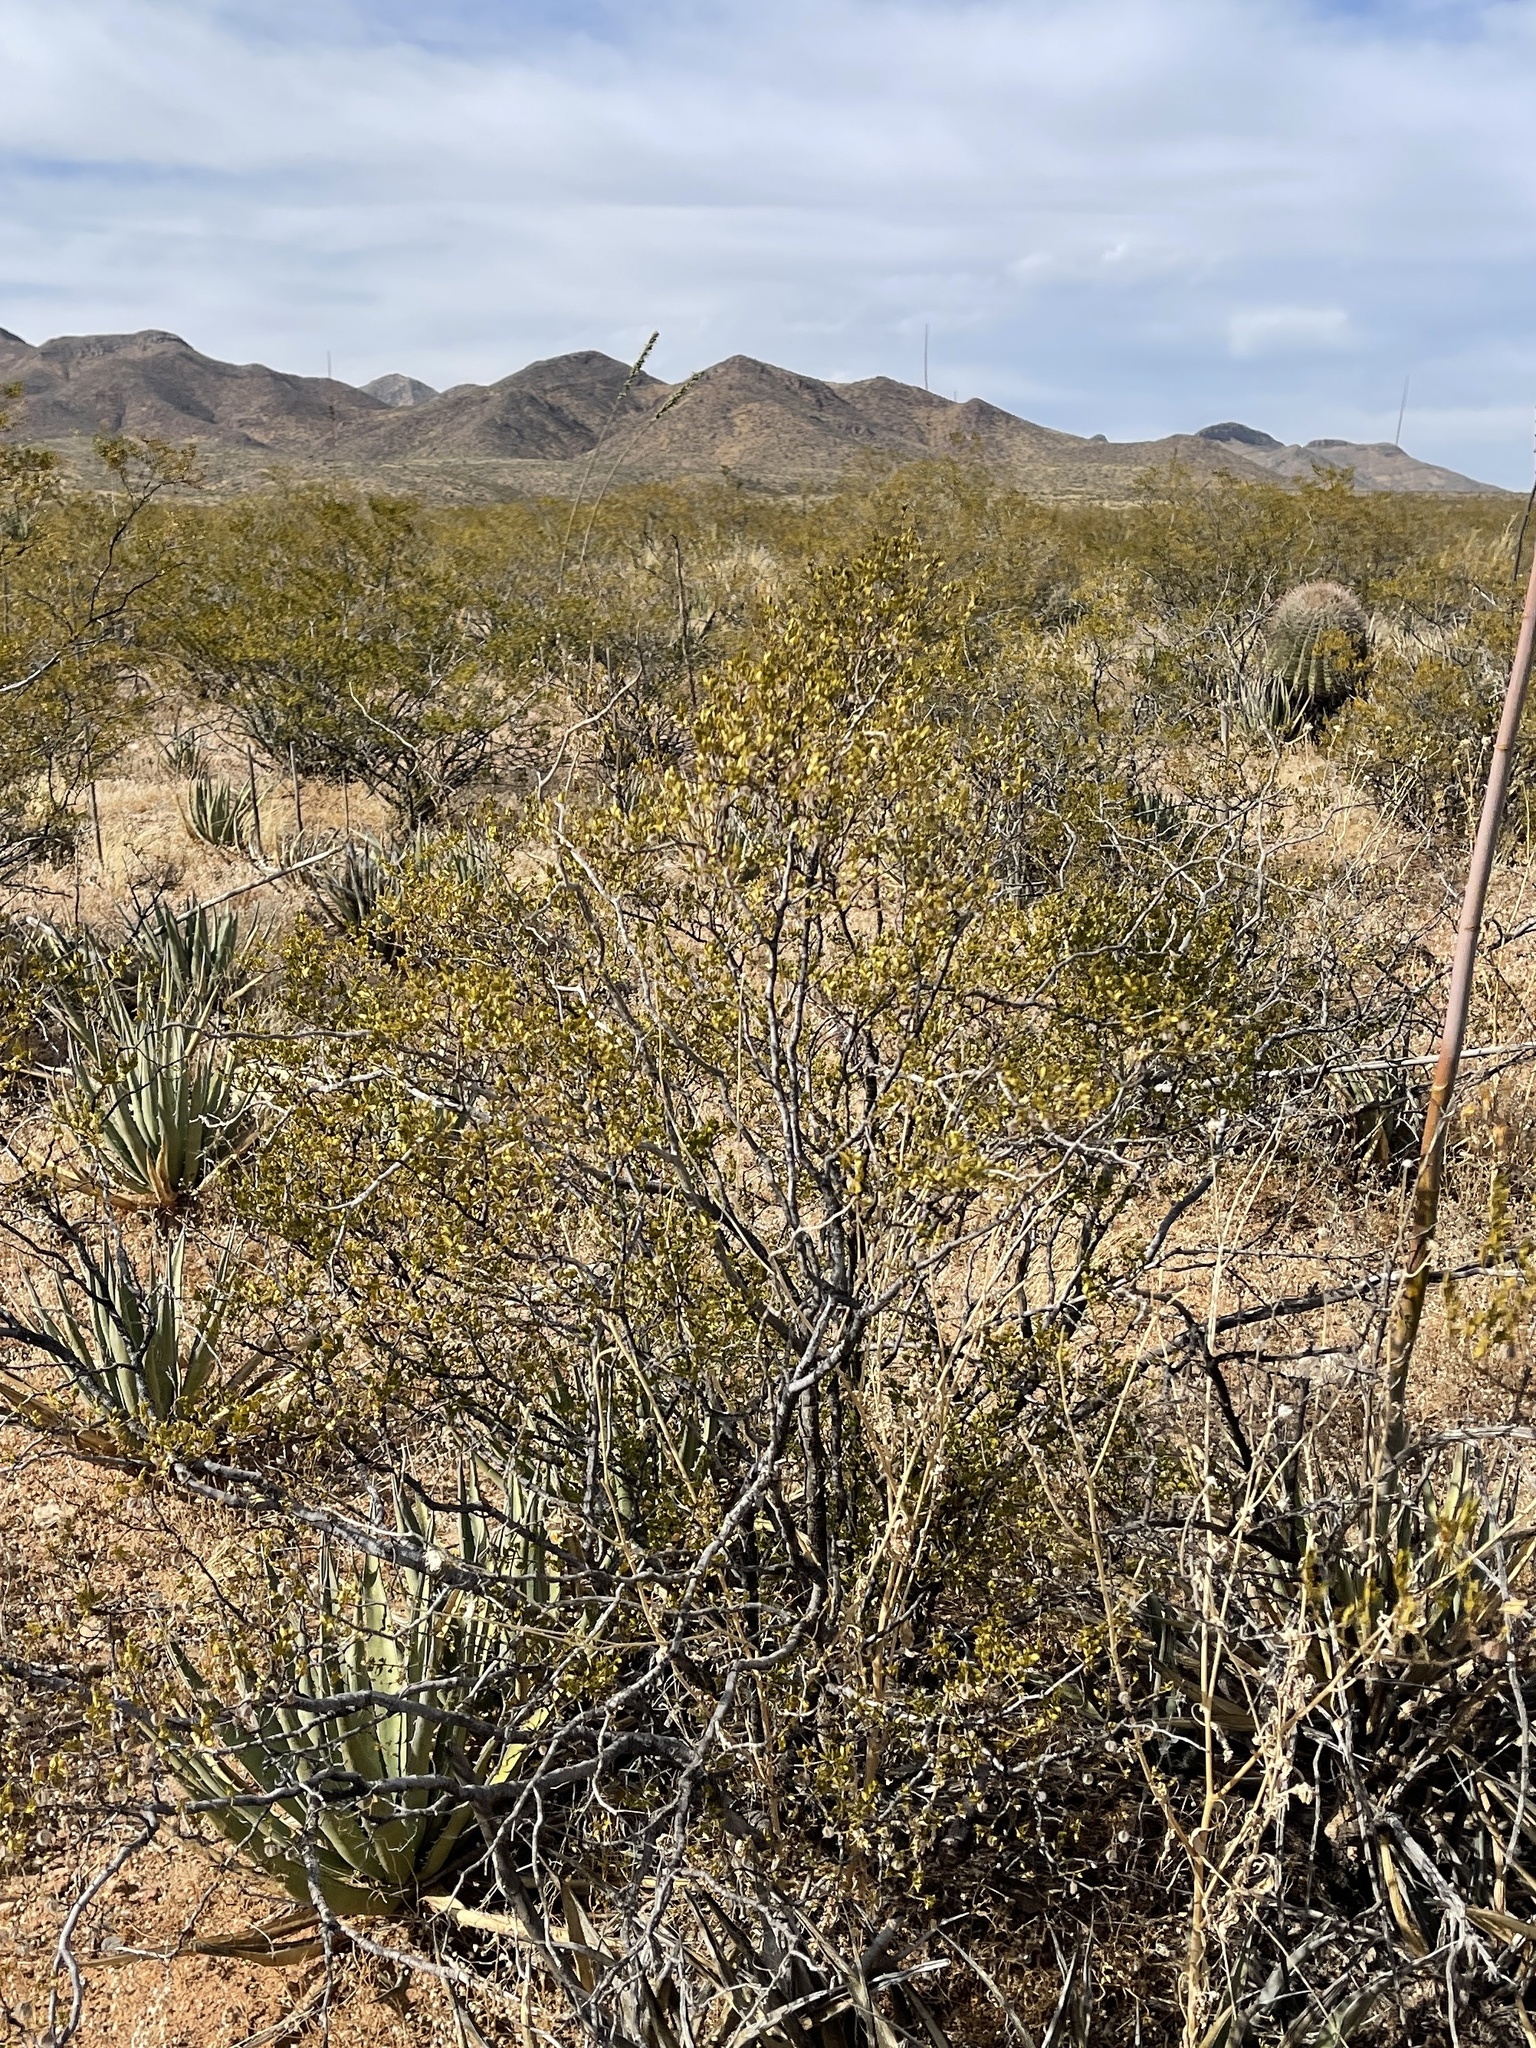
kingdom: Plantae
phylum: Tracheophyta
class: Magnoliopsida
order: Zygophyllales
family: Zygophyllaceae
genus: Larrea
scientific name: Larrea tridentata
